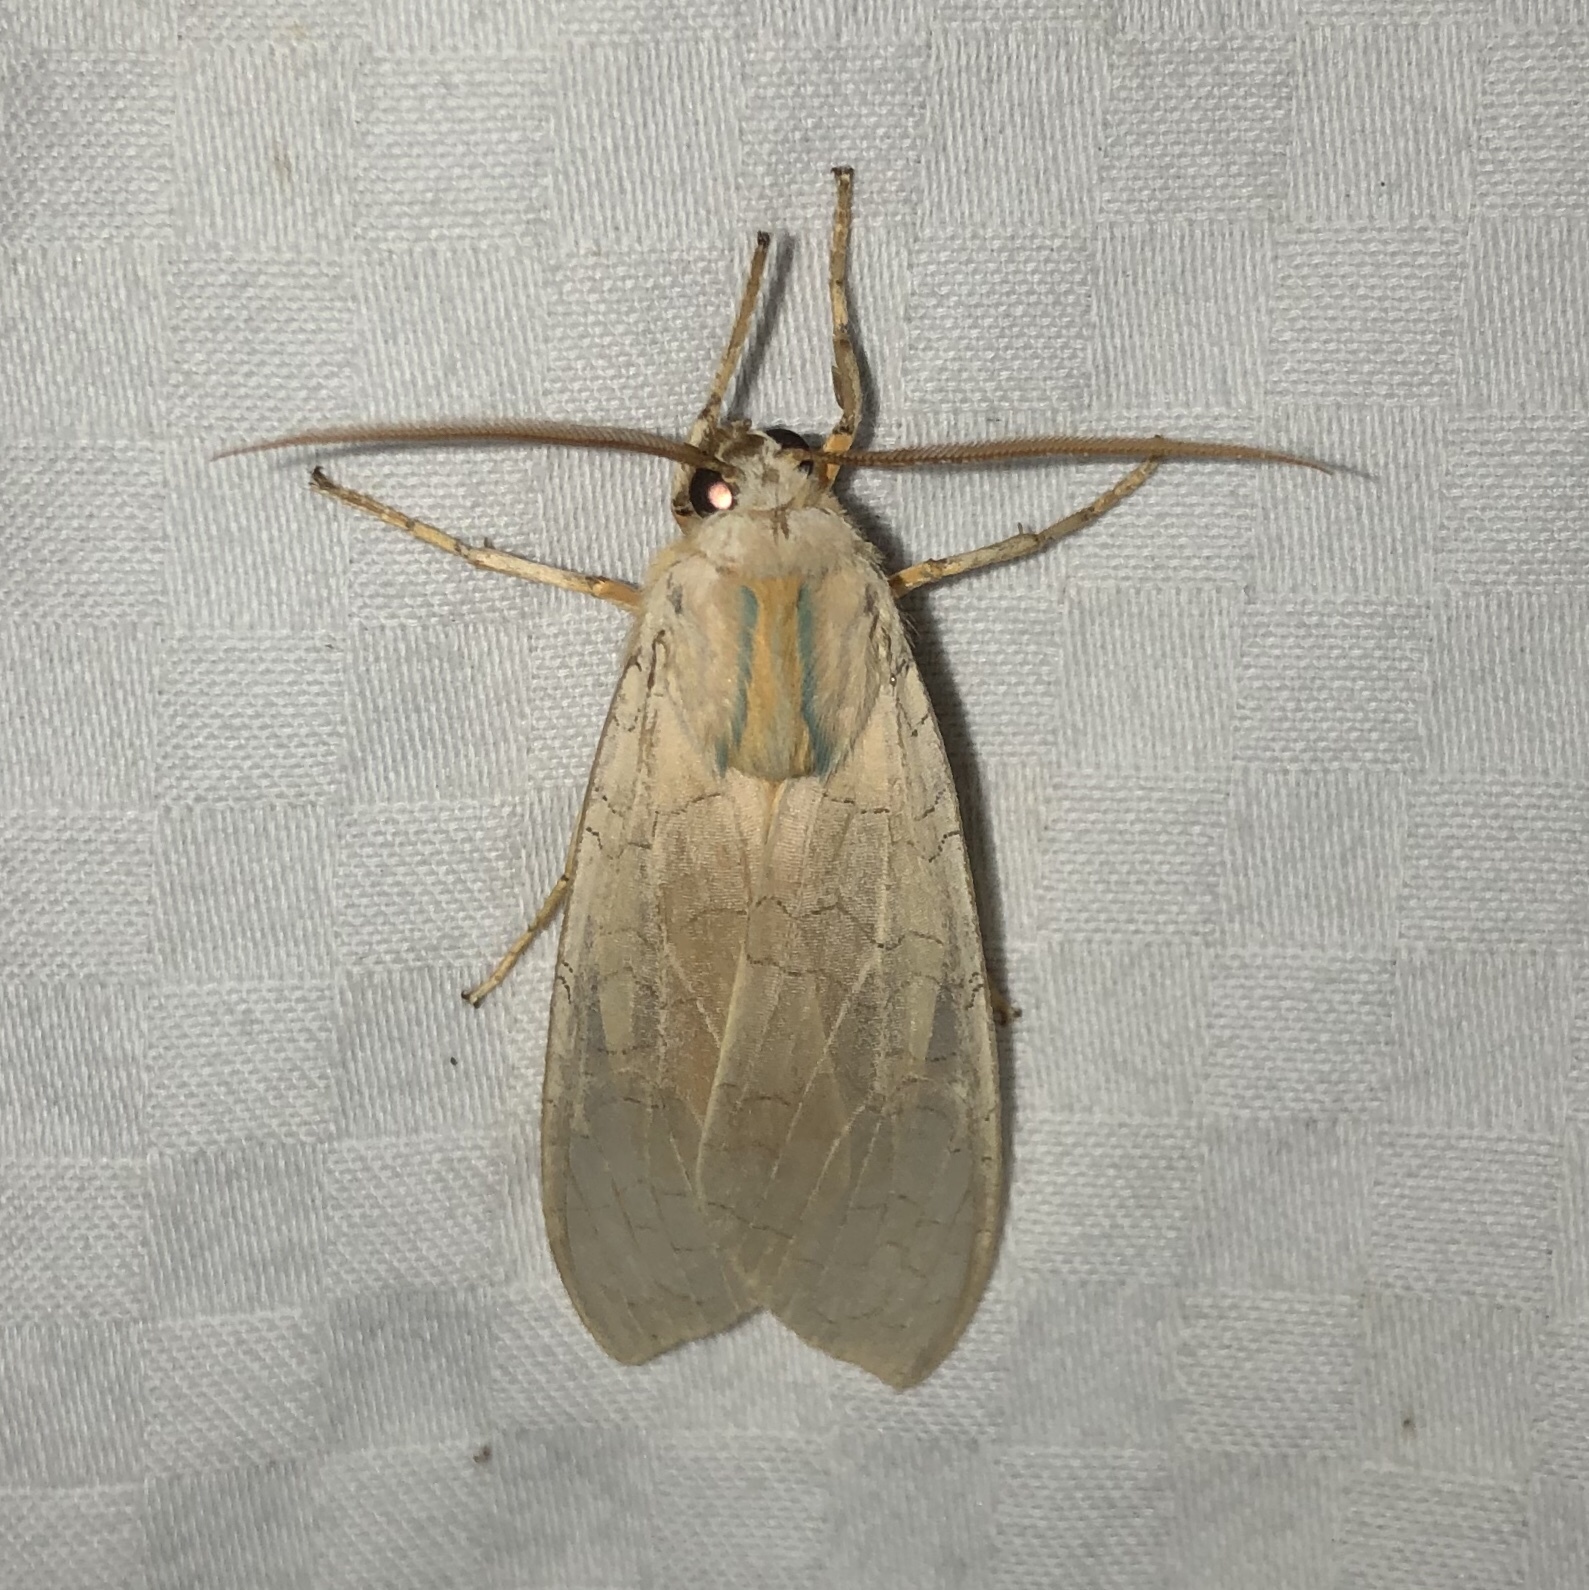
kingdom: Animalia
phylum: Arthropoda
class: Insecta
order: Lepidoptera
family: Erebidae
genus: Halysidota
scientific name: Halysidota tessellaris
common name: Banded tussock moth
